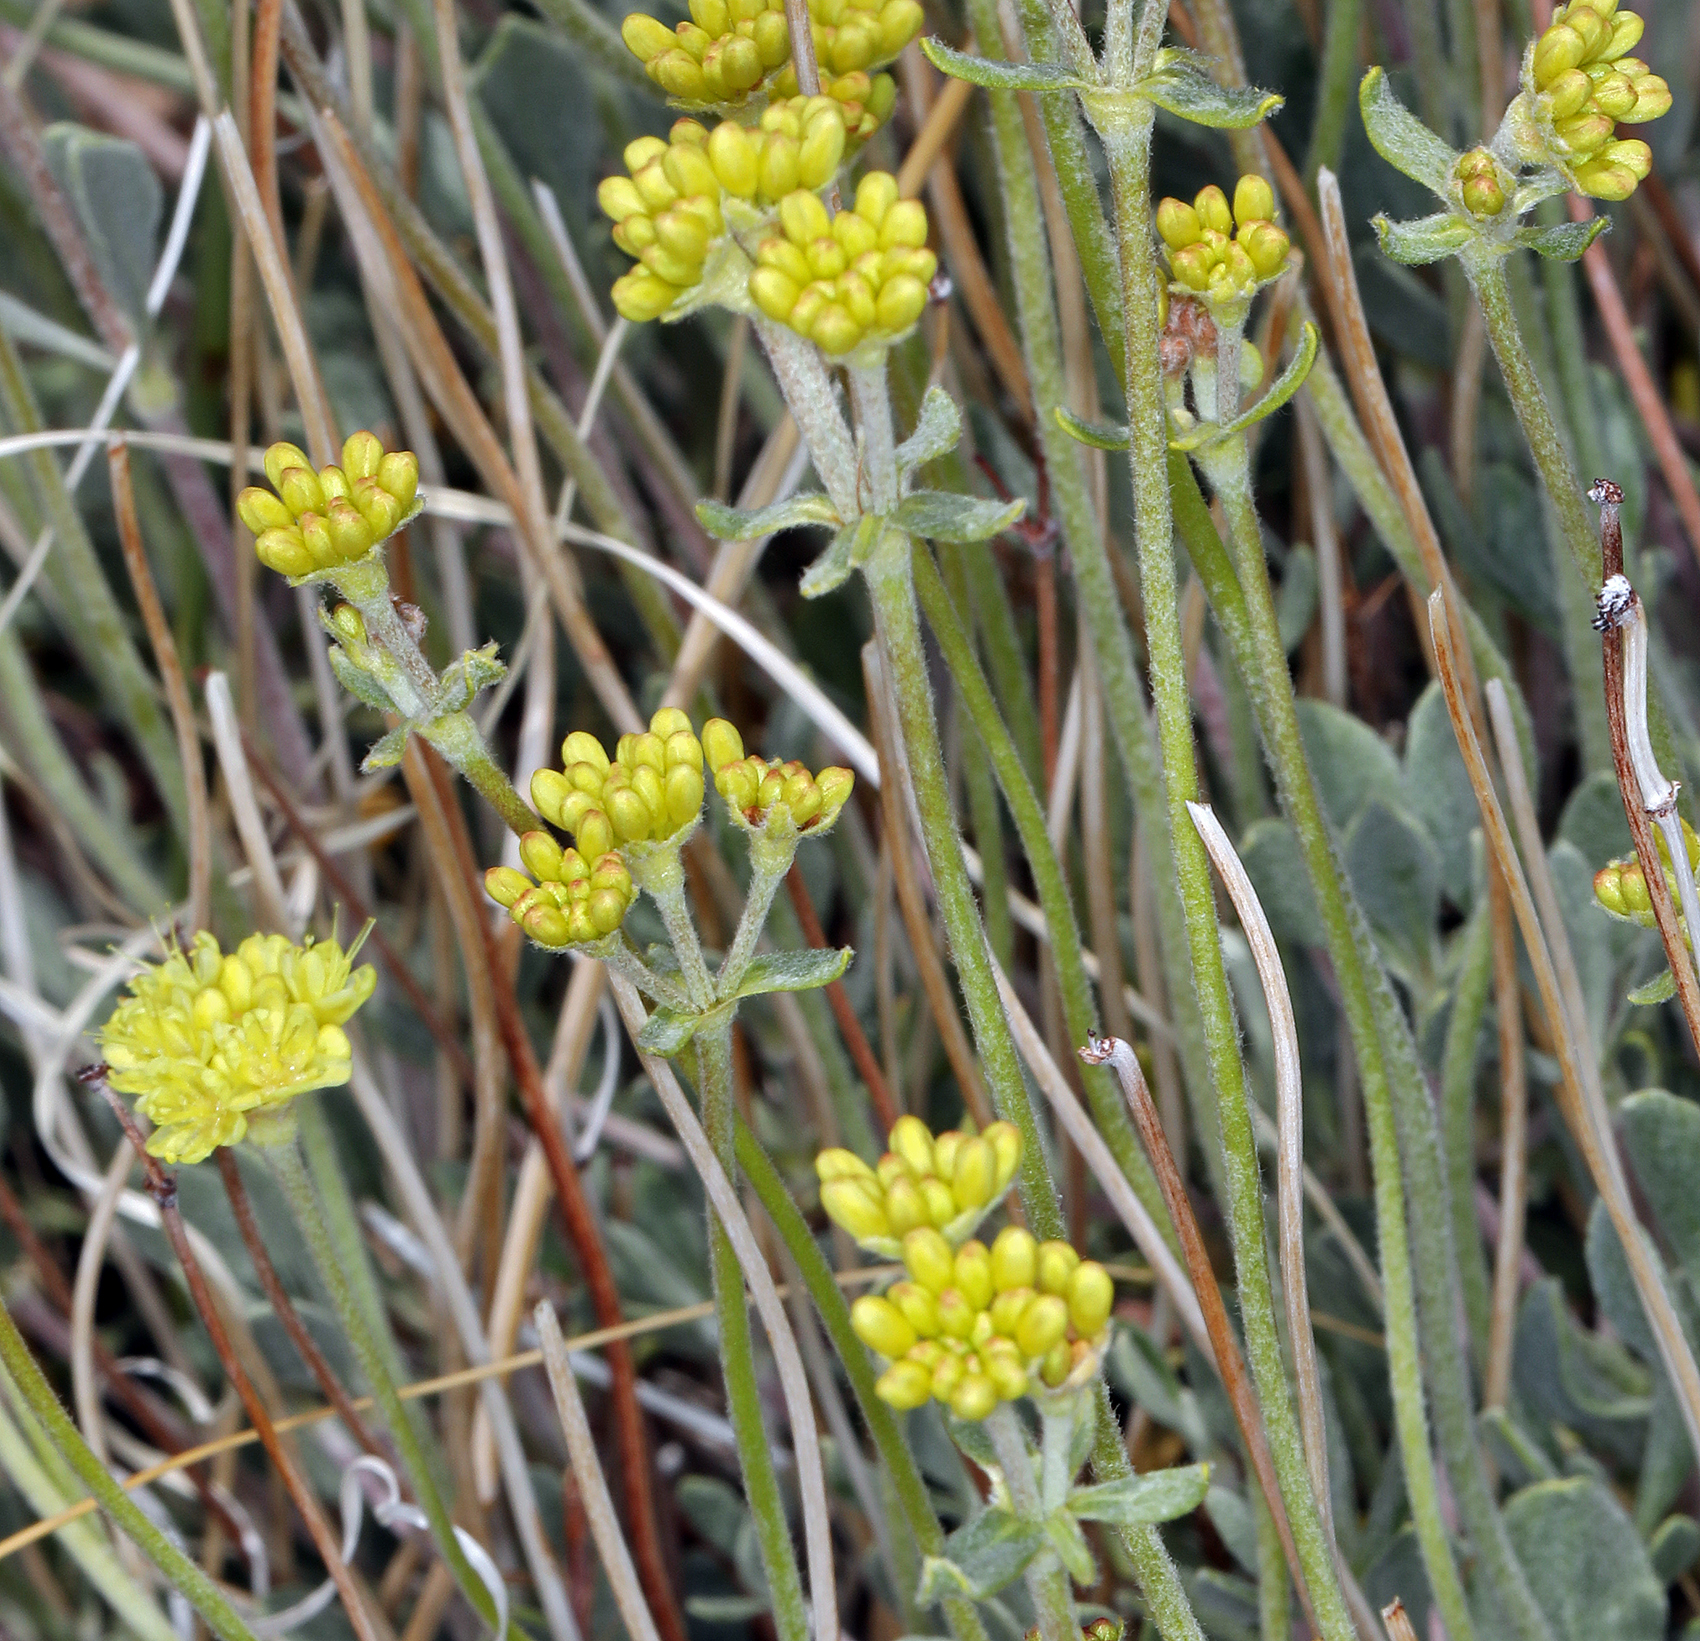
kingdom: Plantae
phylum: Tracheophyta
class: Magnoliopsida
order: Caryophyllales
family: Polygonaceae
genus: Eriogonum
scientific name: Eriogonum umbellatum
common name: Sulfur-buckwheat
